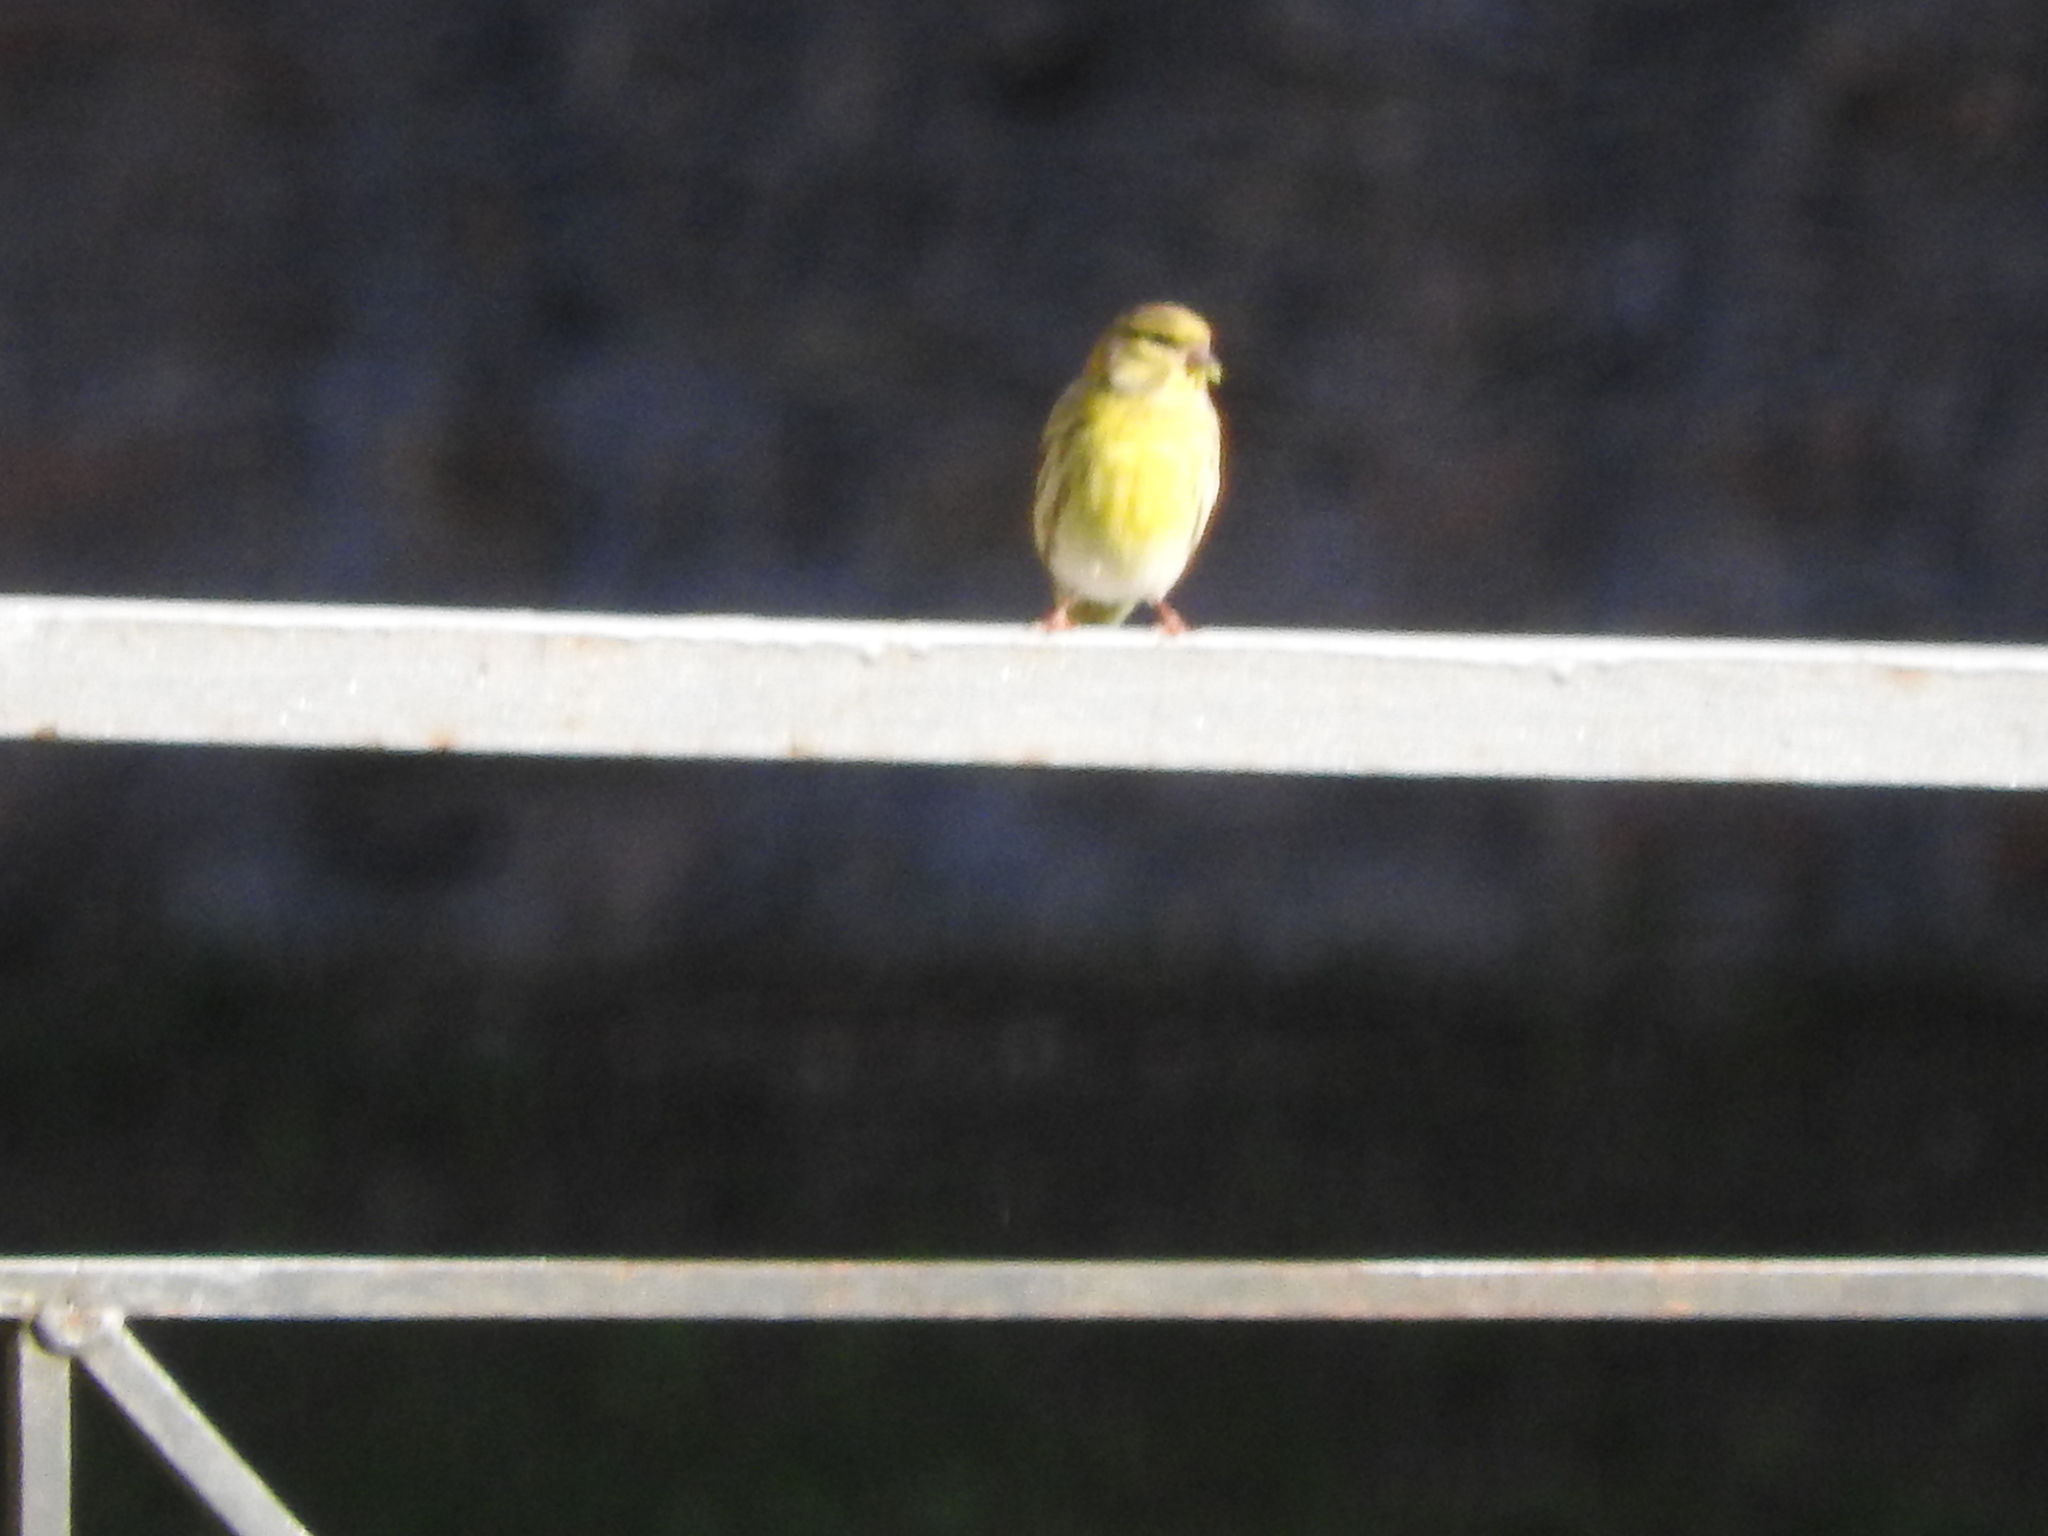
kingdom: Animalia
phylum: Chordata
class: Aves
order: Passeriformes
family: Fringillidae
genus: Serinus
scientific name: Serinus serinus
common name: European serin
